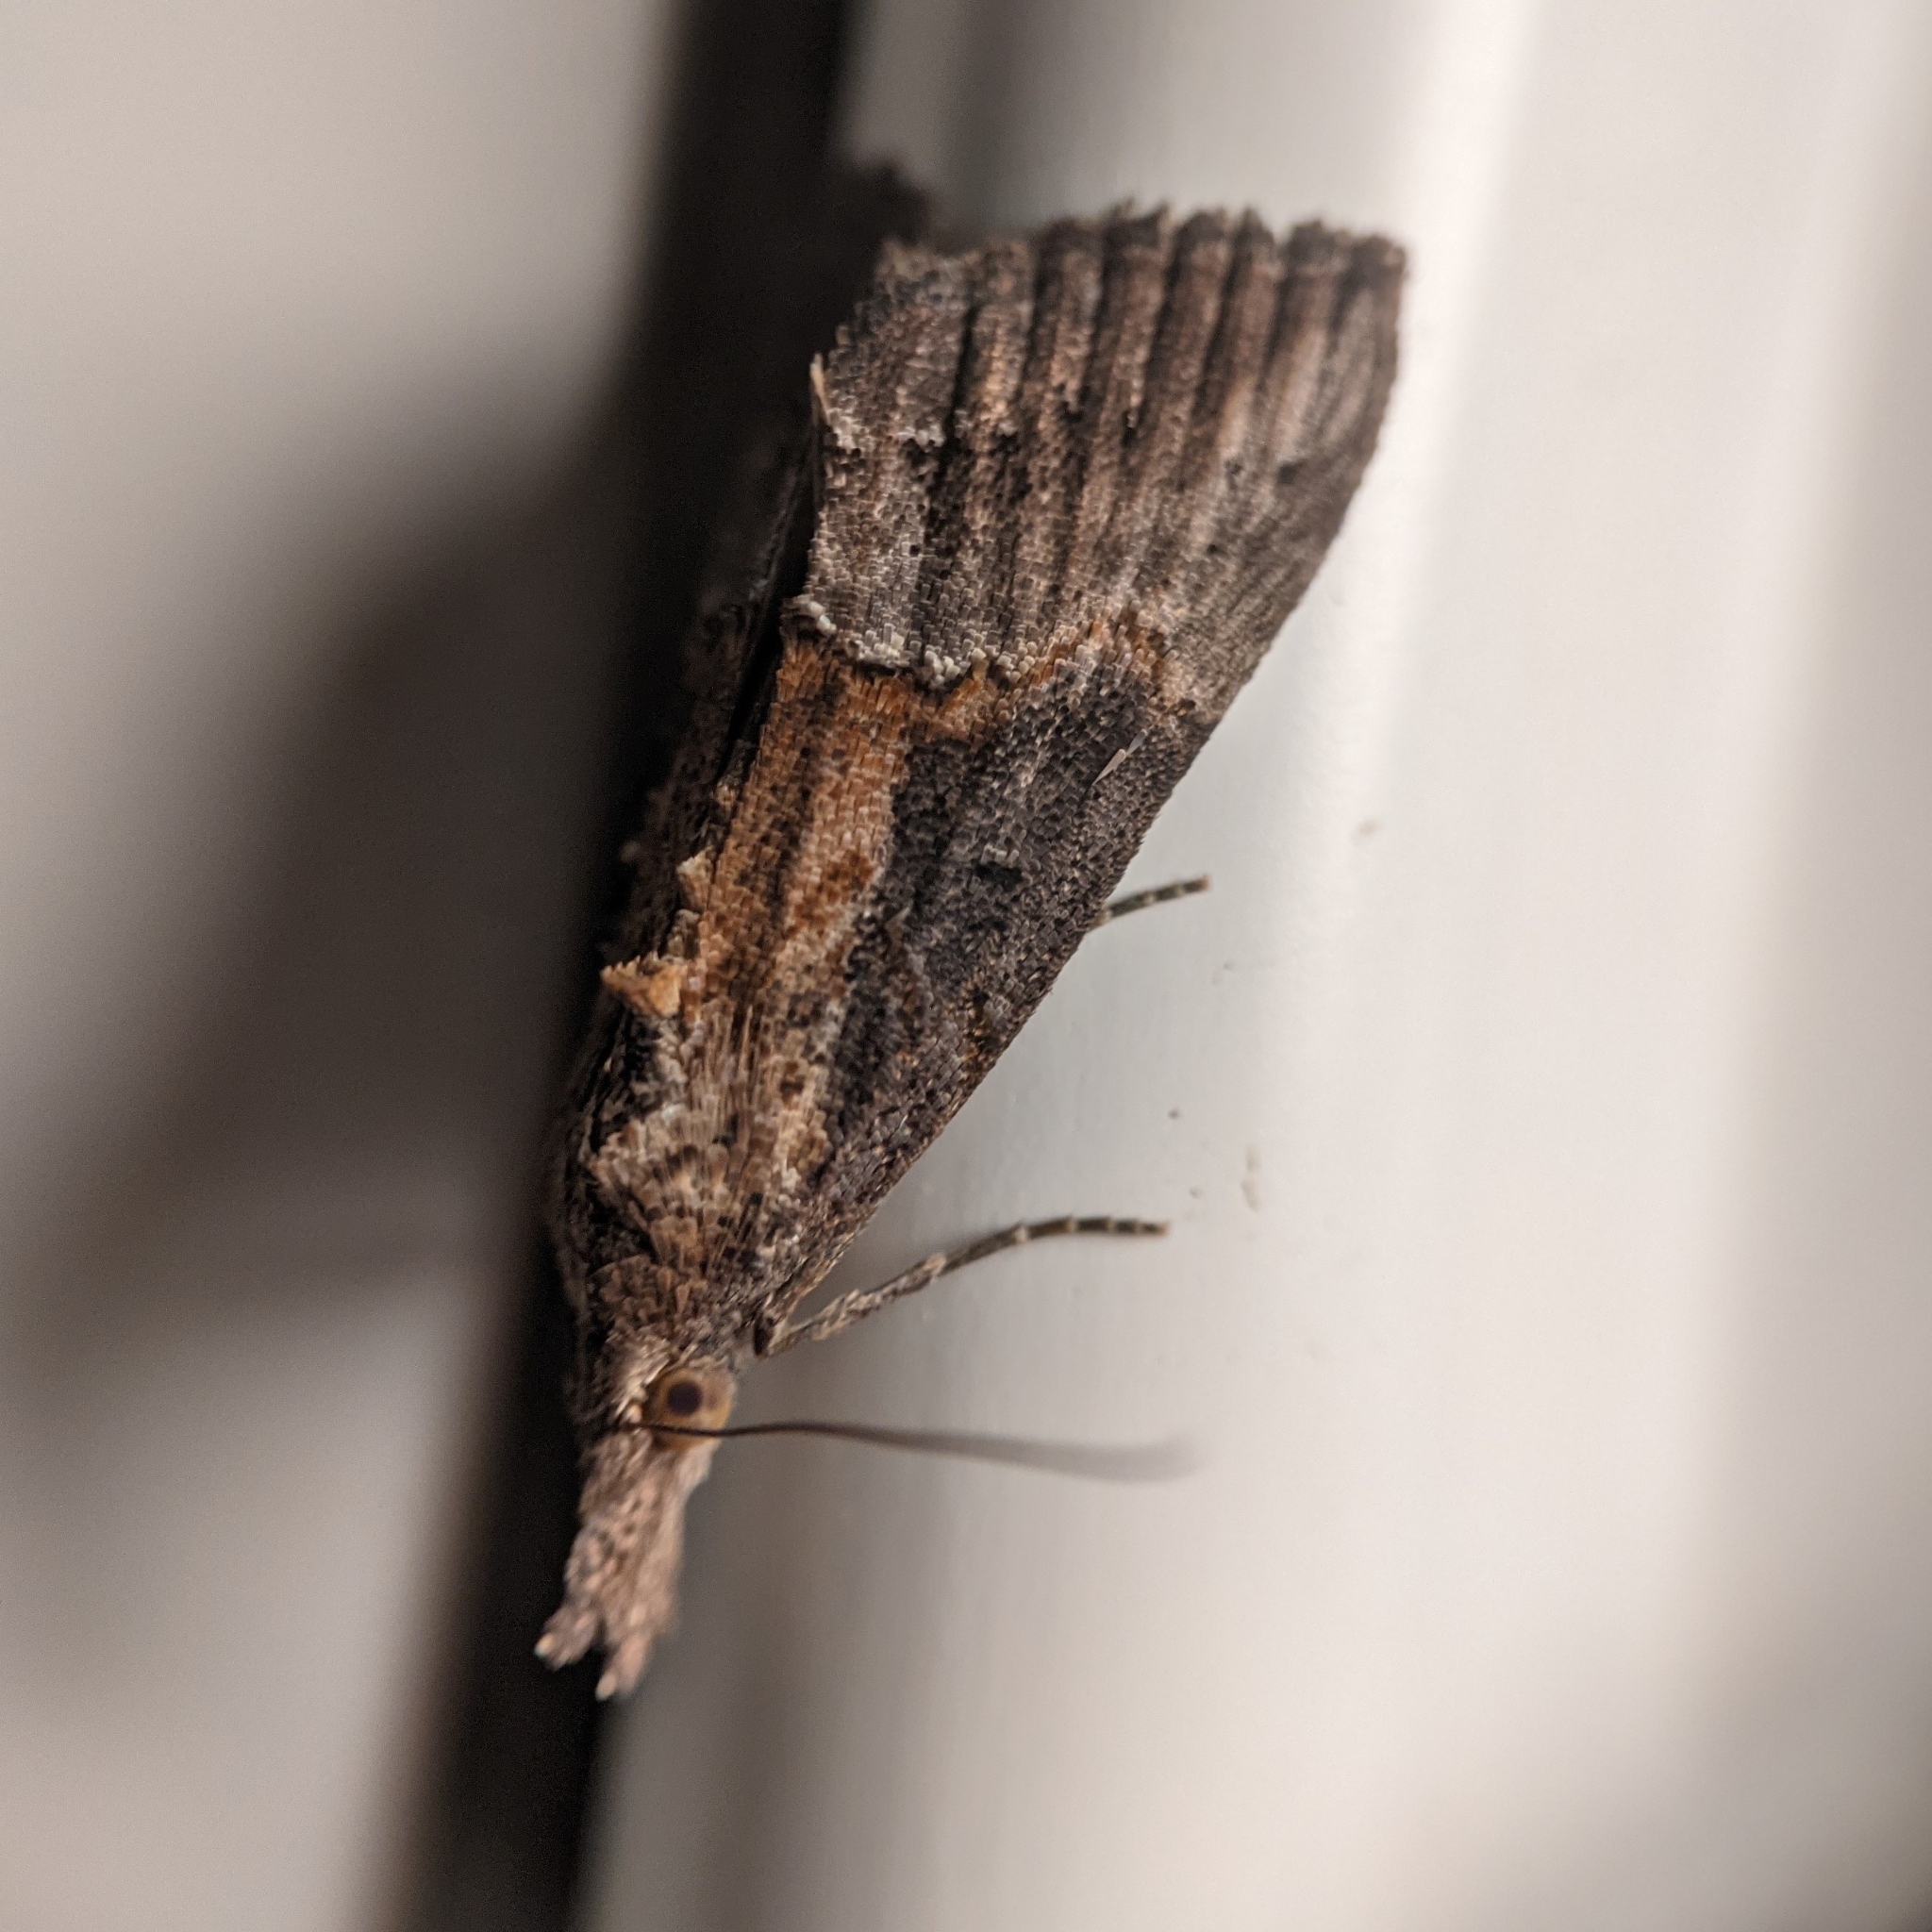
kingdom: Animalia
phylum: Arthropoda
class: Insecta
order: Lepidoptera
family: Erebidae
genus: Hypena
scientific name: Hypena scabra
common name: Green cloverworm
